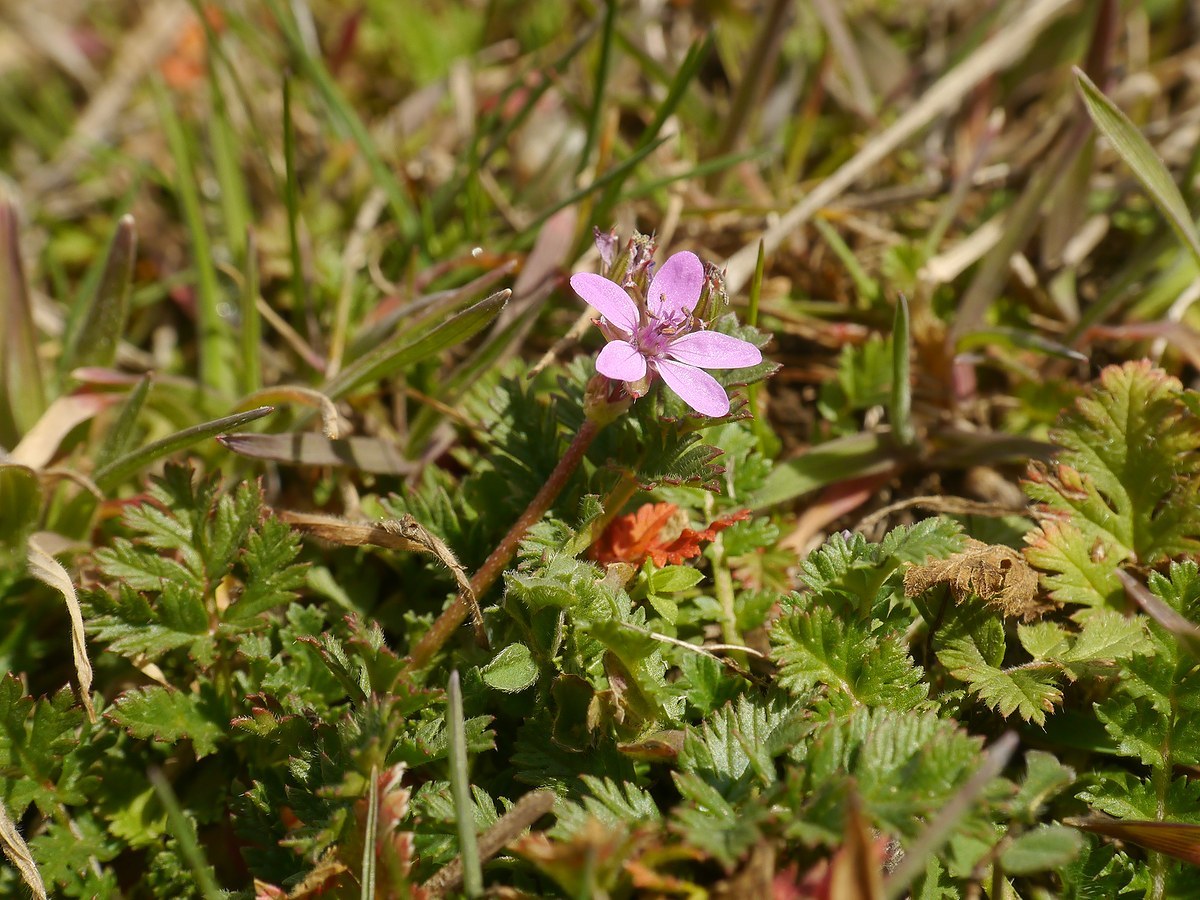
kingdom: Plantae
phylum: Tracheophyta
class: Magnoliopsida
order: Geraniales
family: Geraniaceae
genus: Erodium
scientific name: Erodium cicutarium
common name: Common stork's-bill
